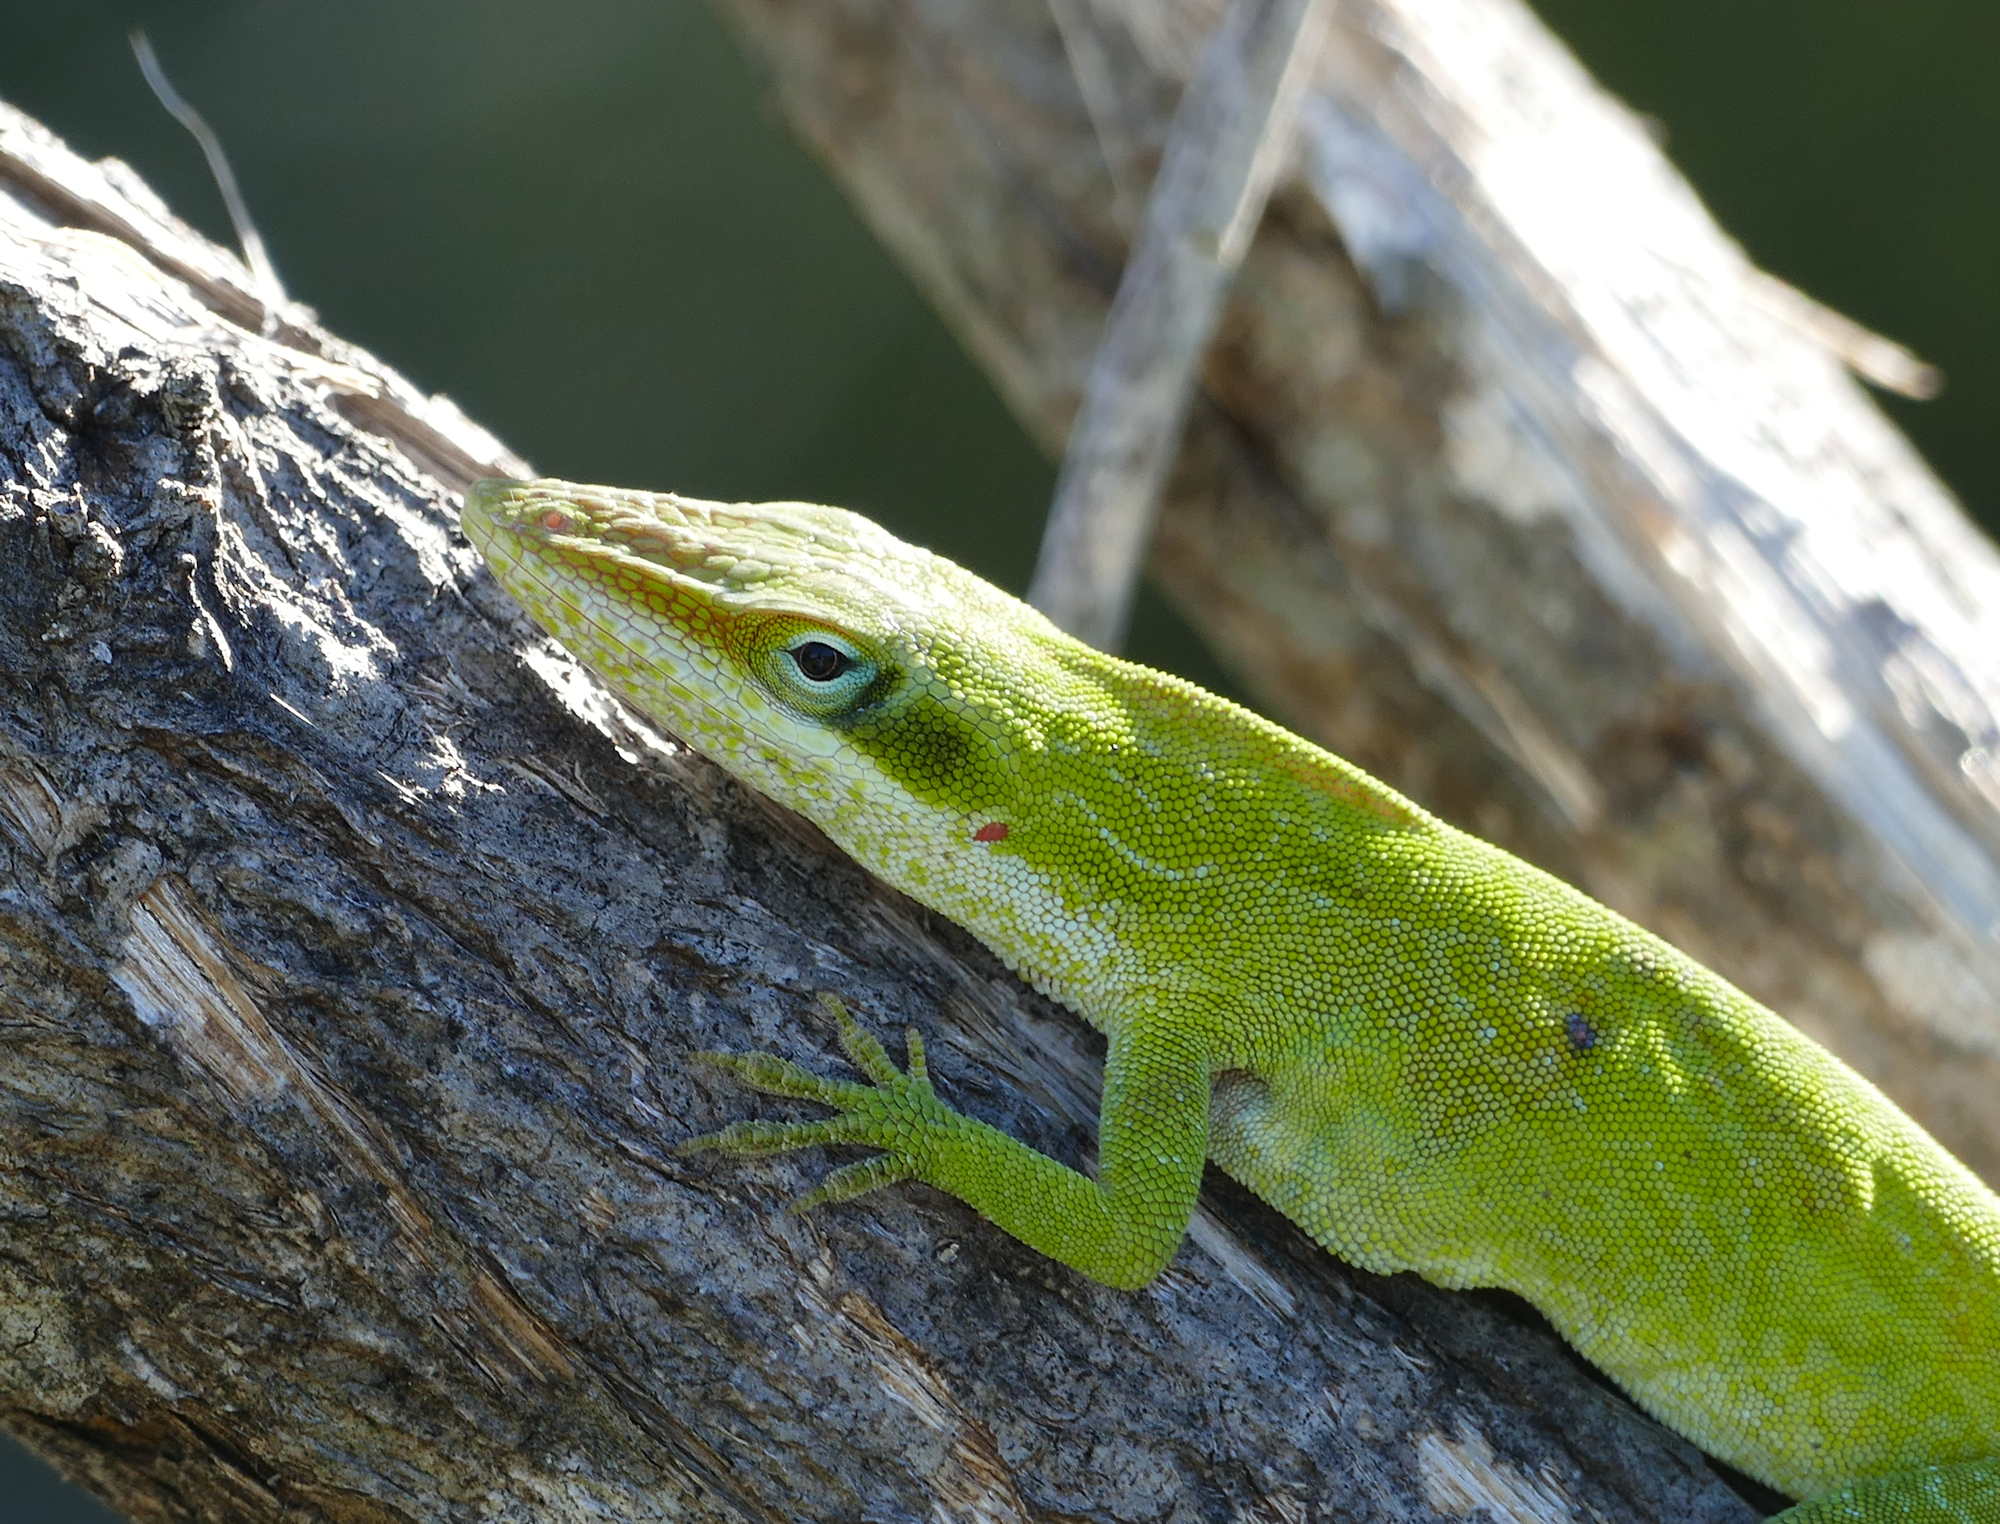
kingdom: Animalia
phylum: Chordata
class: Squamata
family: Dactyloidae
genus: Anolis
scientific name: Anolis carolinensis
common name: Green anole
